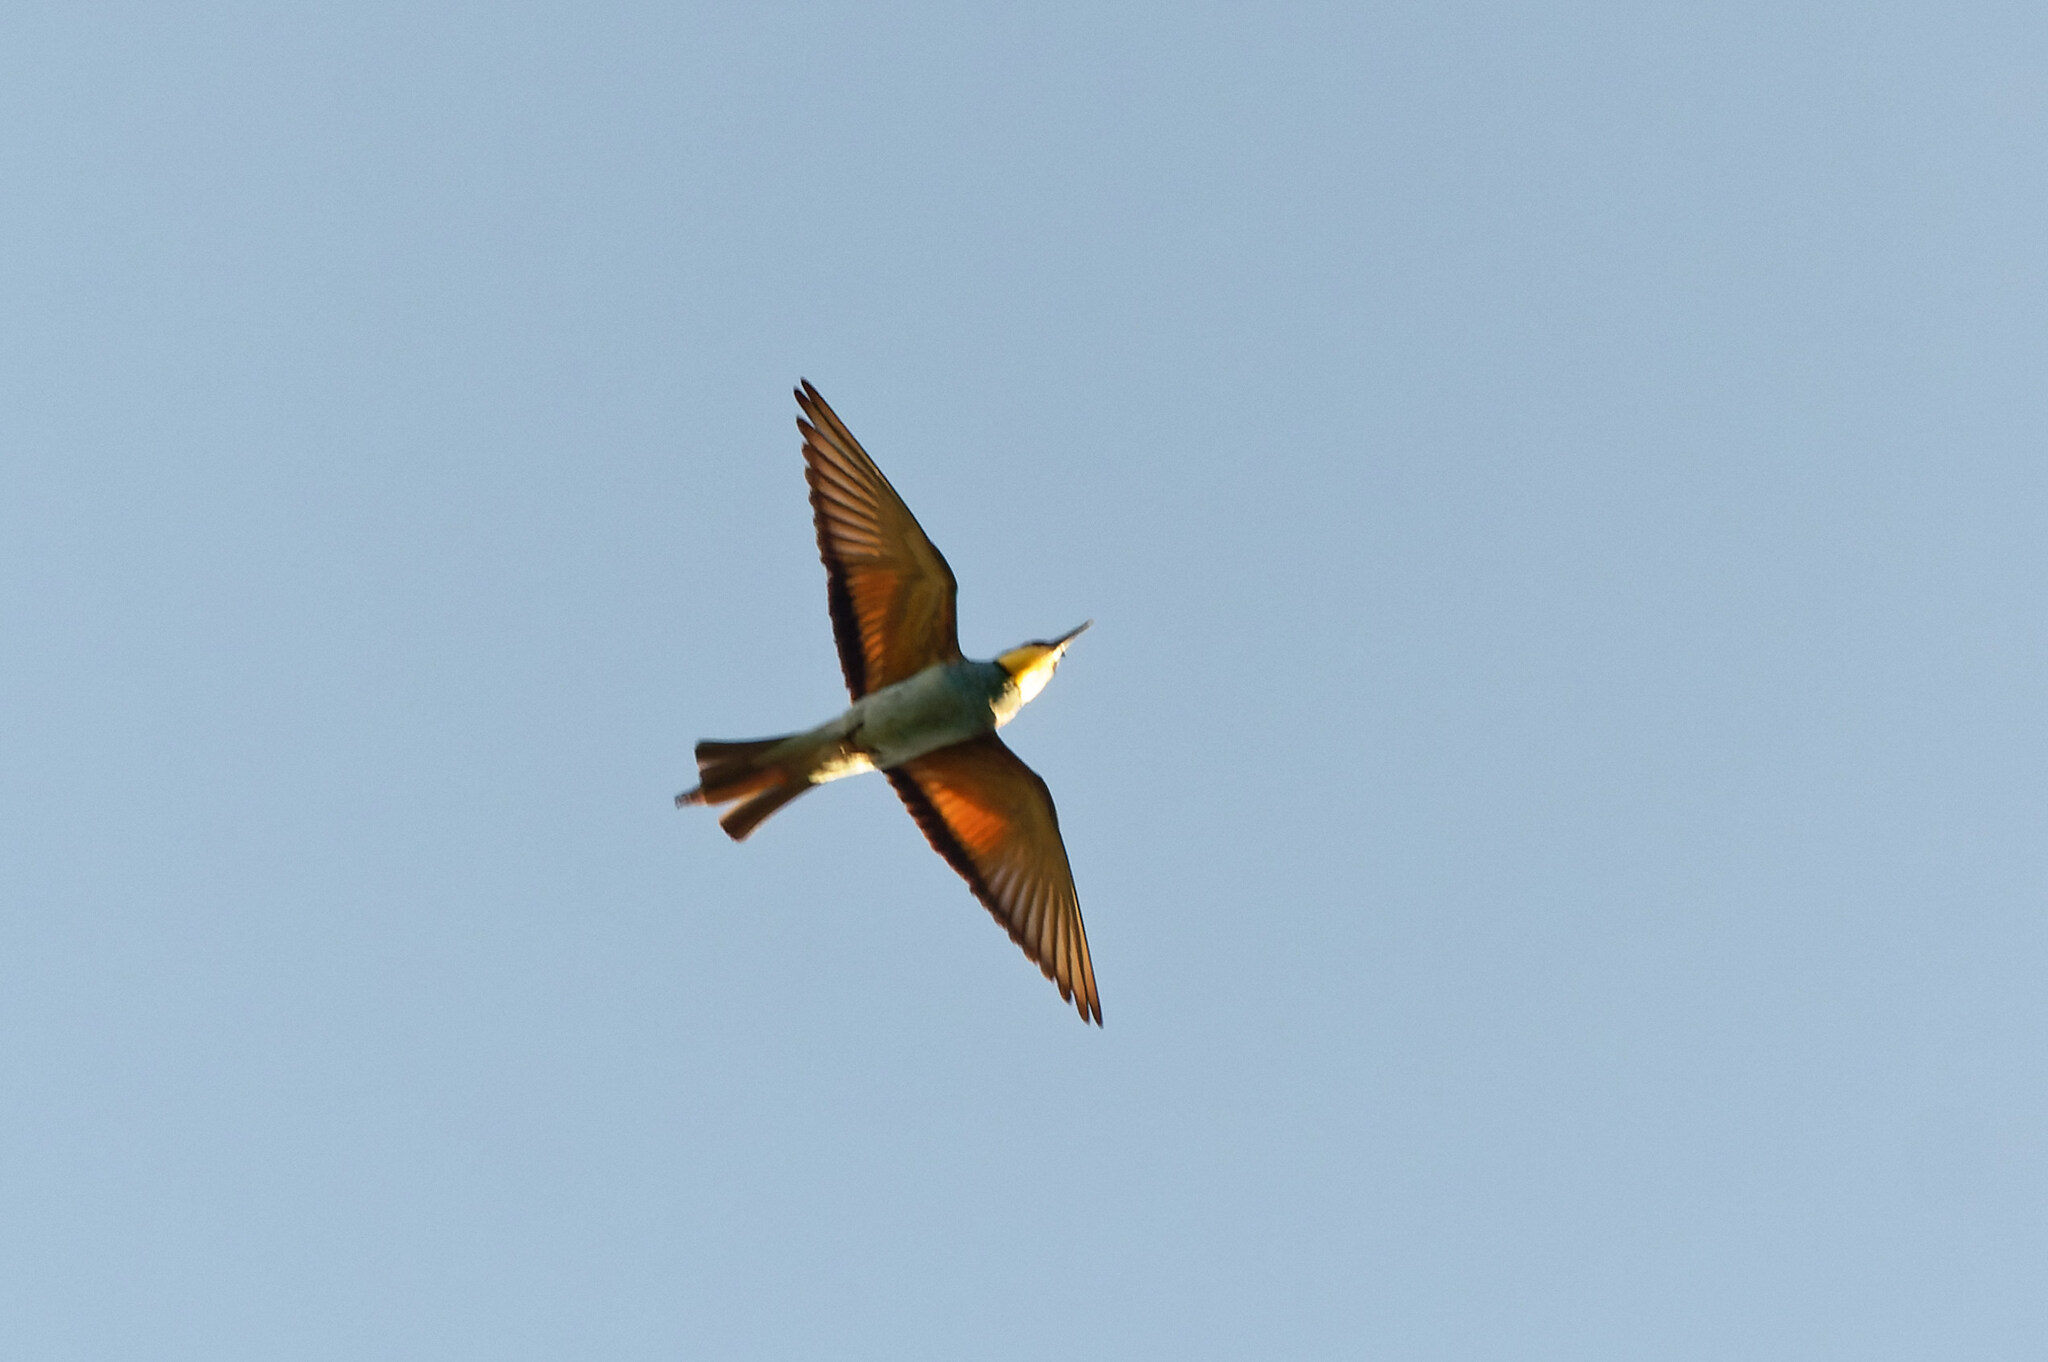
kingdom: Animalia
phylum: Chordata
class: Aves
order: Coraciiformes
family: Meropidae
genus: Merops
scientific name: Merops apiaster
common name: European bee-eater
